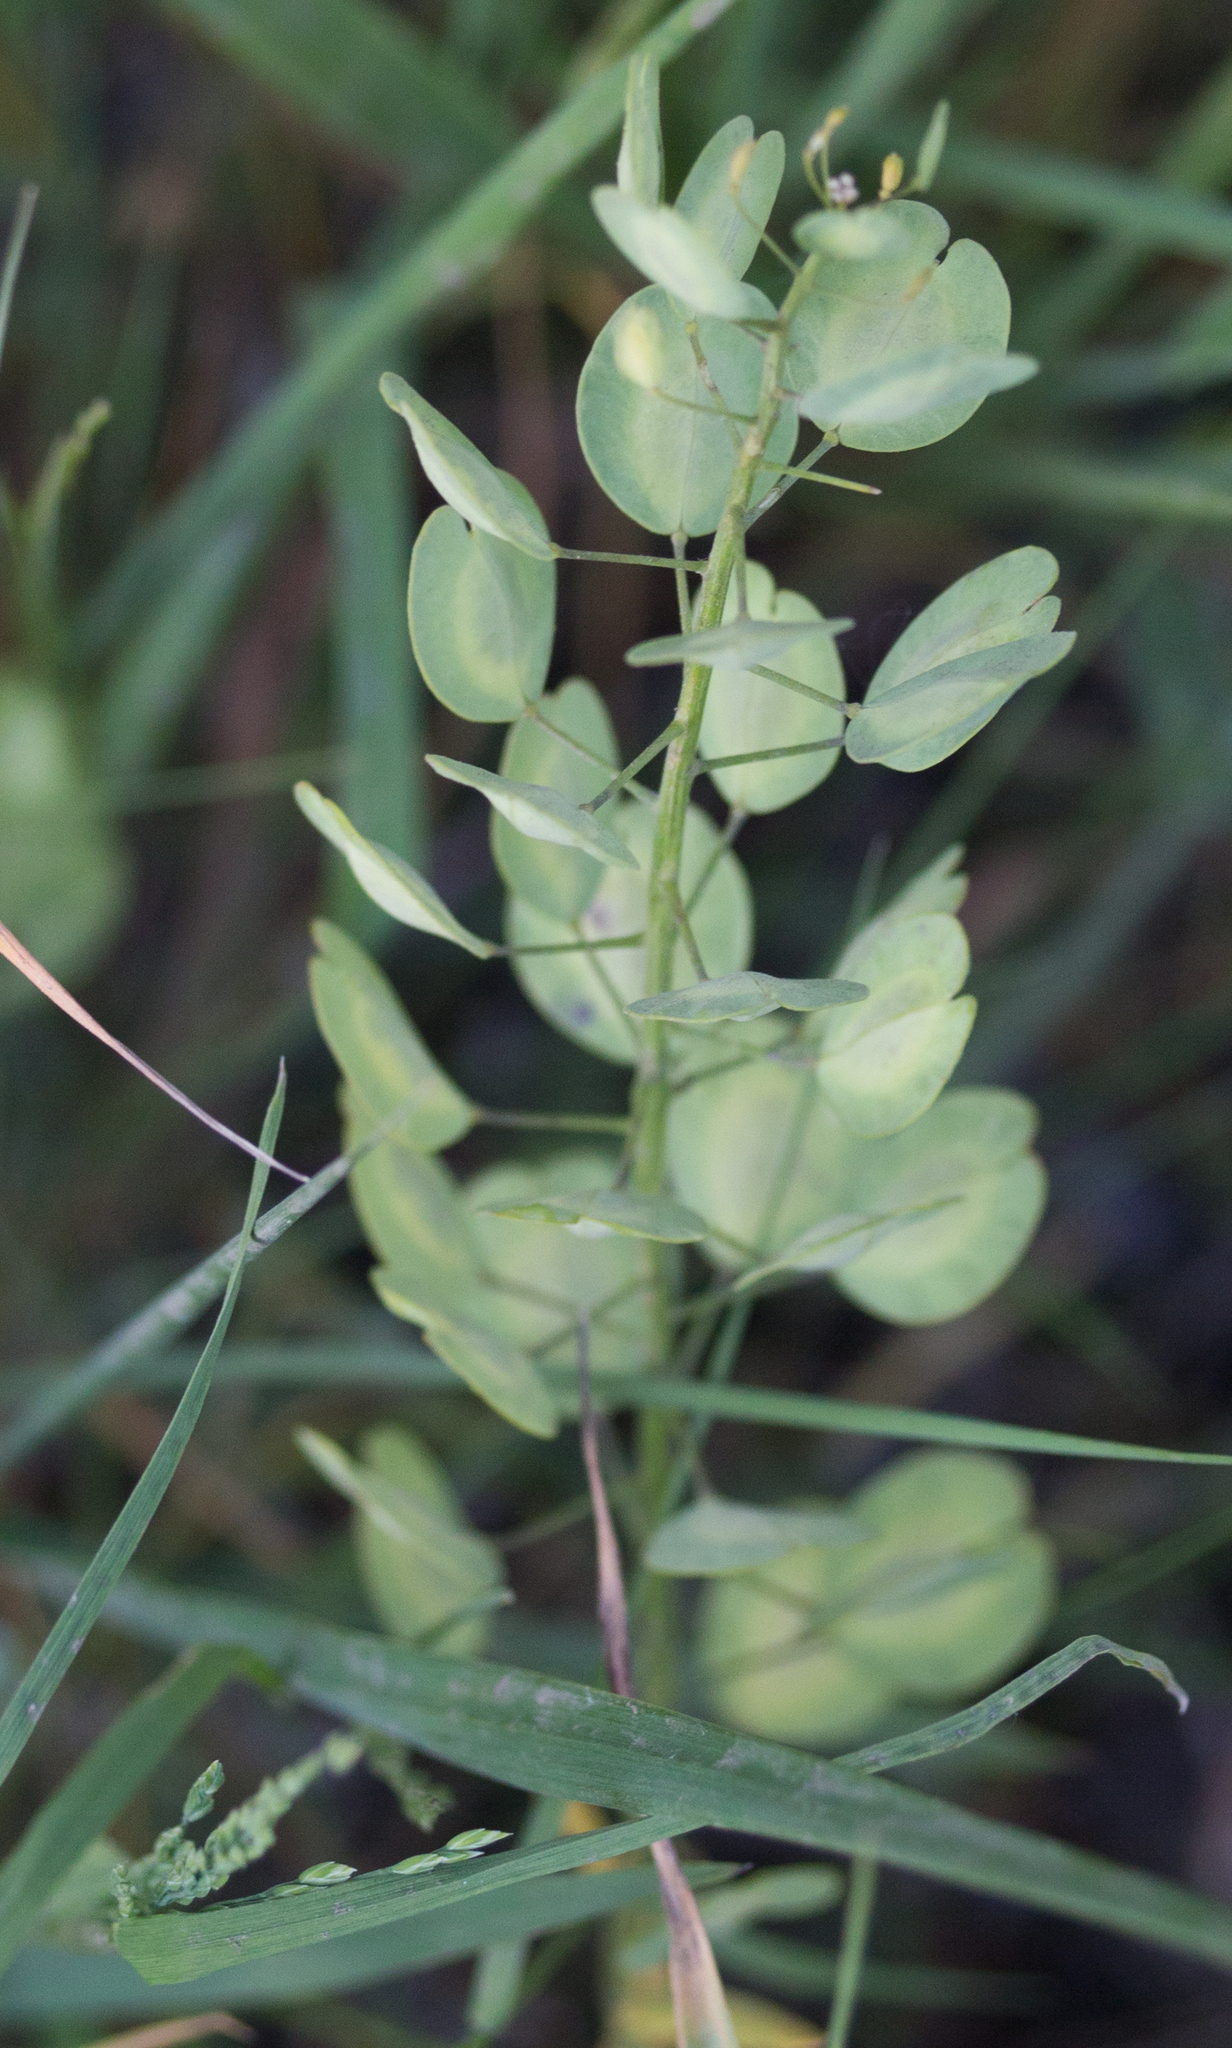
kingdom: Plantae
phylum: Tracheophyta
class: Magnoliopsida
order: Brassicales
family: Brassicaceae
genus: Thlaspi
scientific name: Thlaspi arvense
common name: Field pennycress
